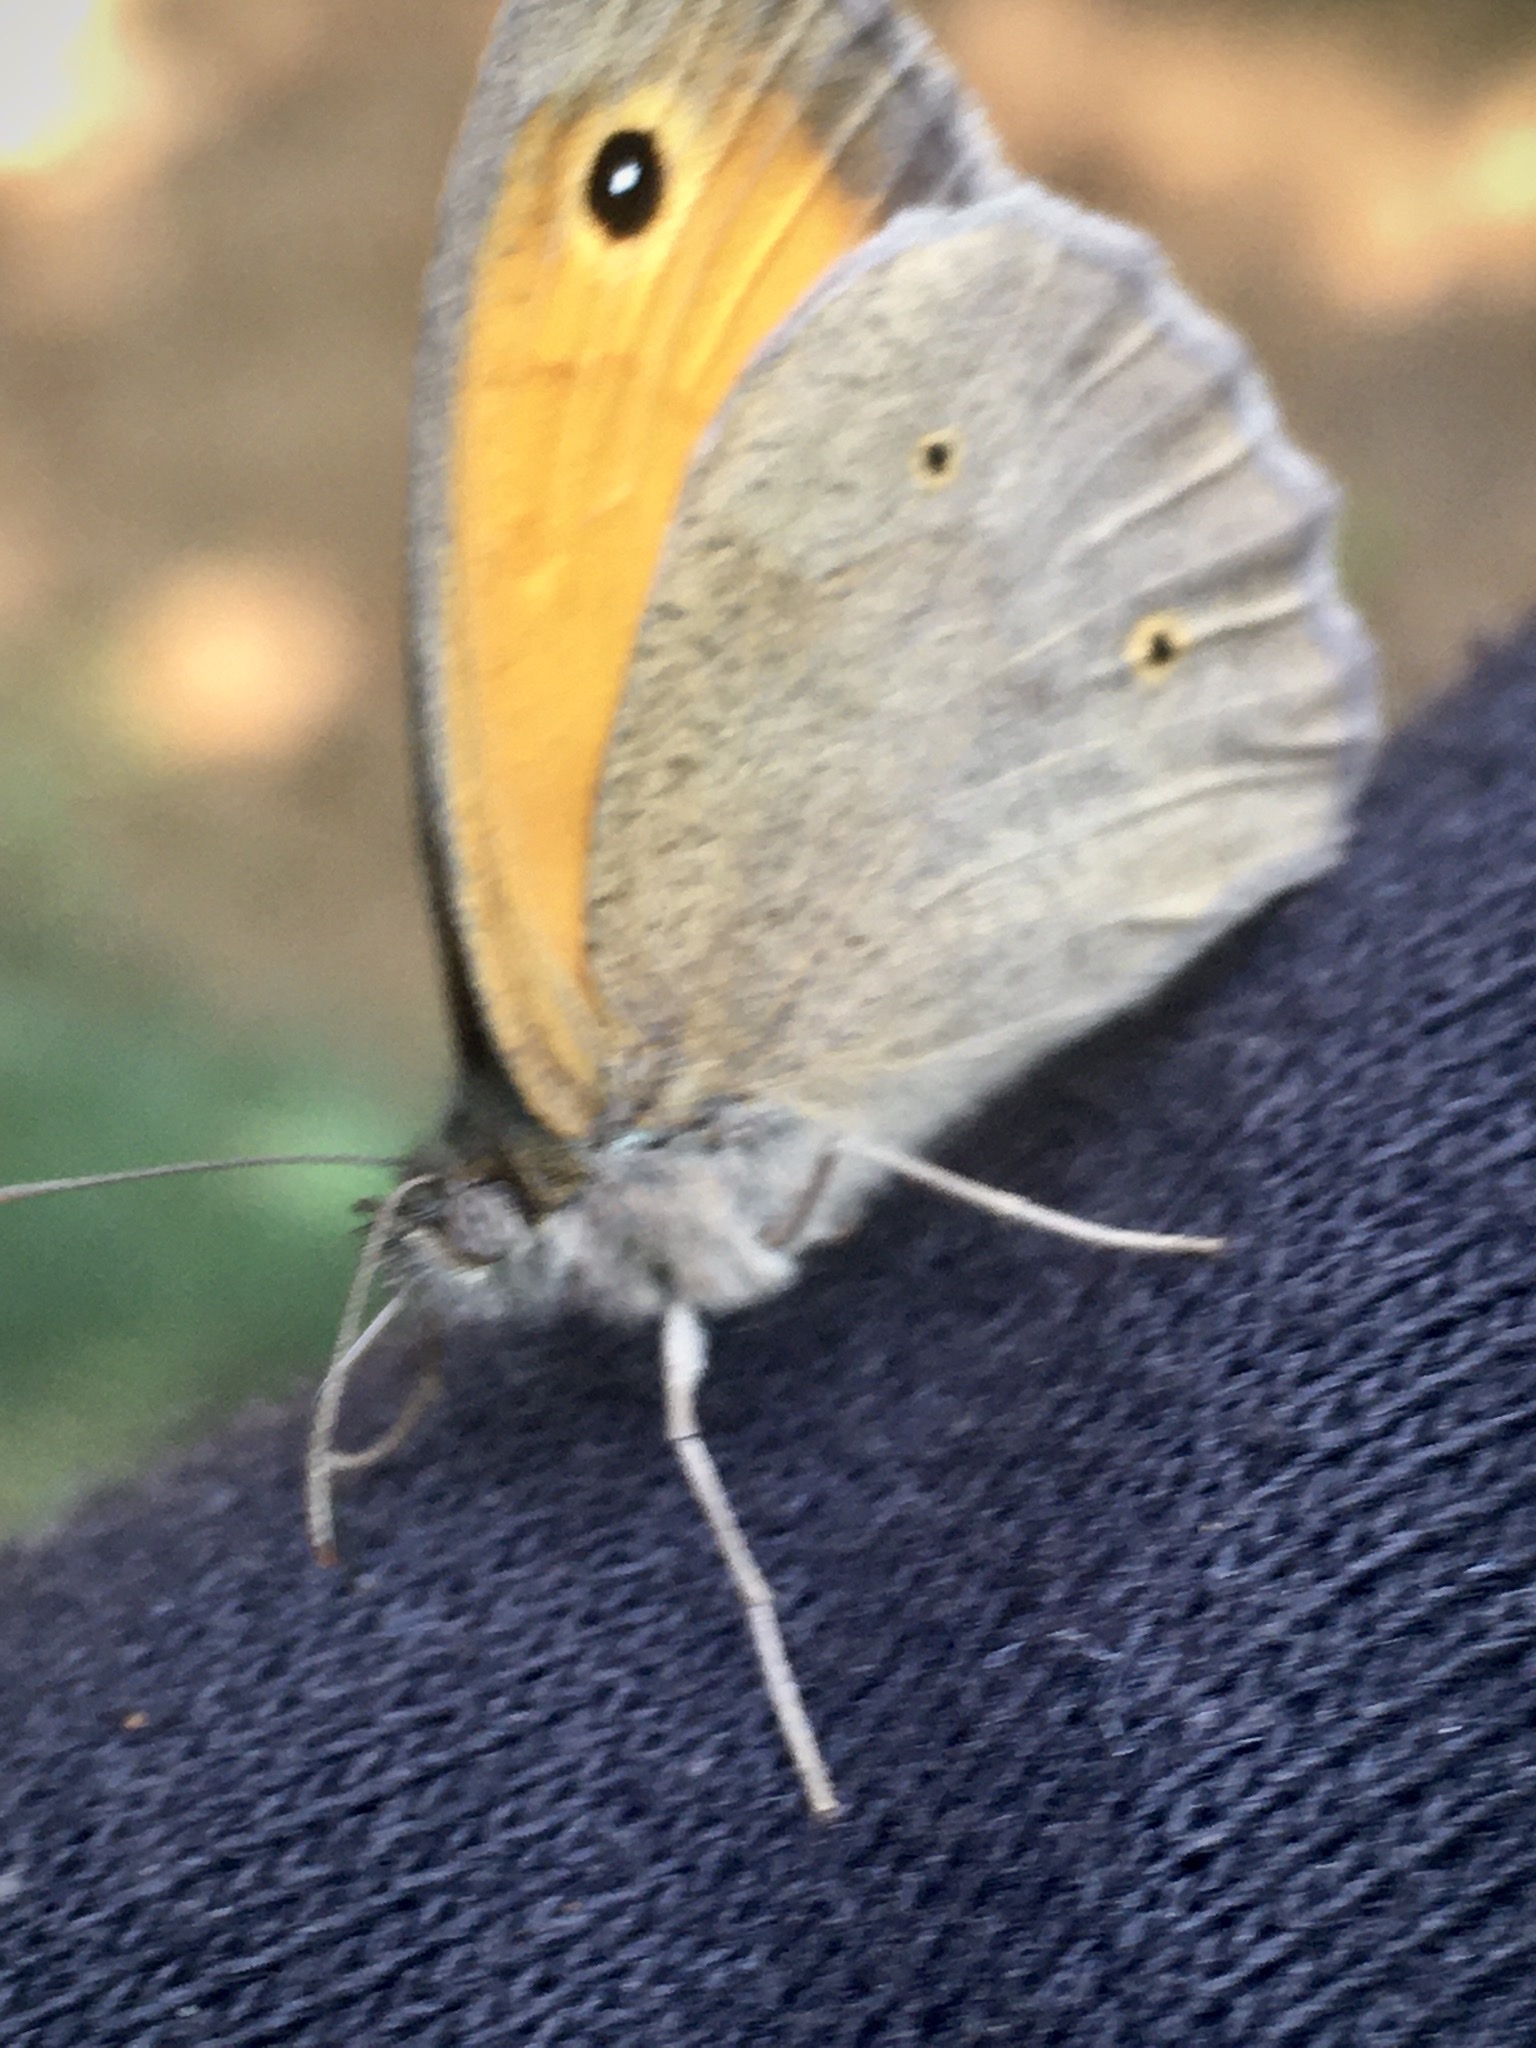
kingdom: Animalia
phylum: Arthropoda
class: Insecta
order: Lepidoptera
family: Nymphalidae
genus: Maniola
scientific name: Maniola jurtina
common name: Meadow brown
